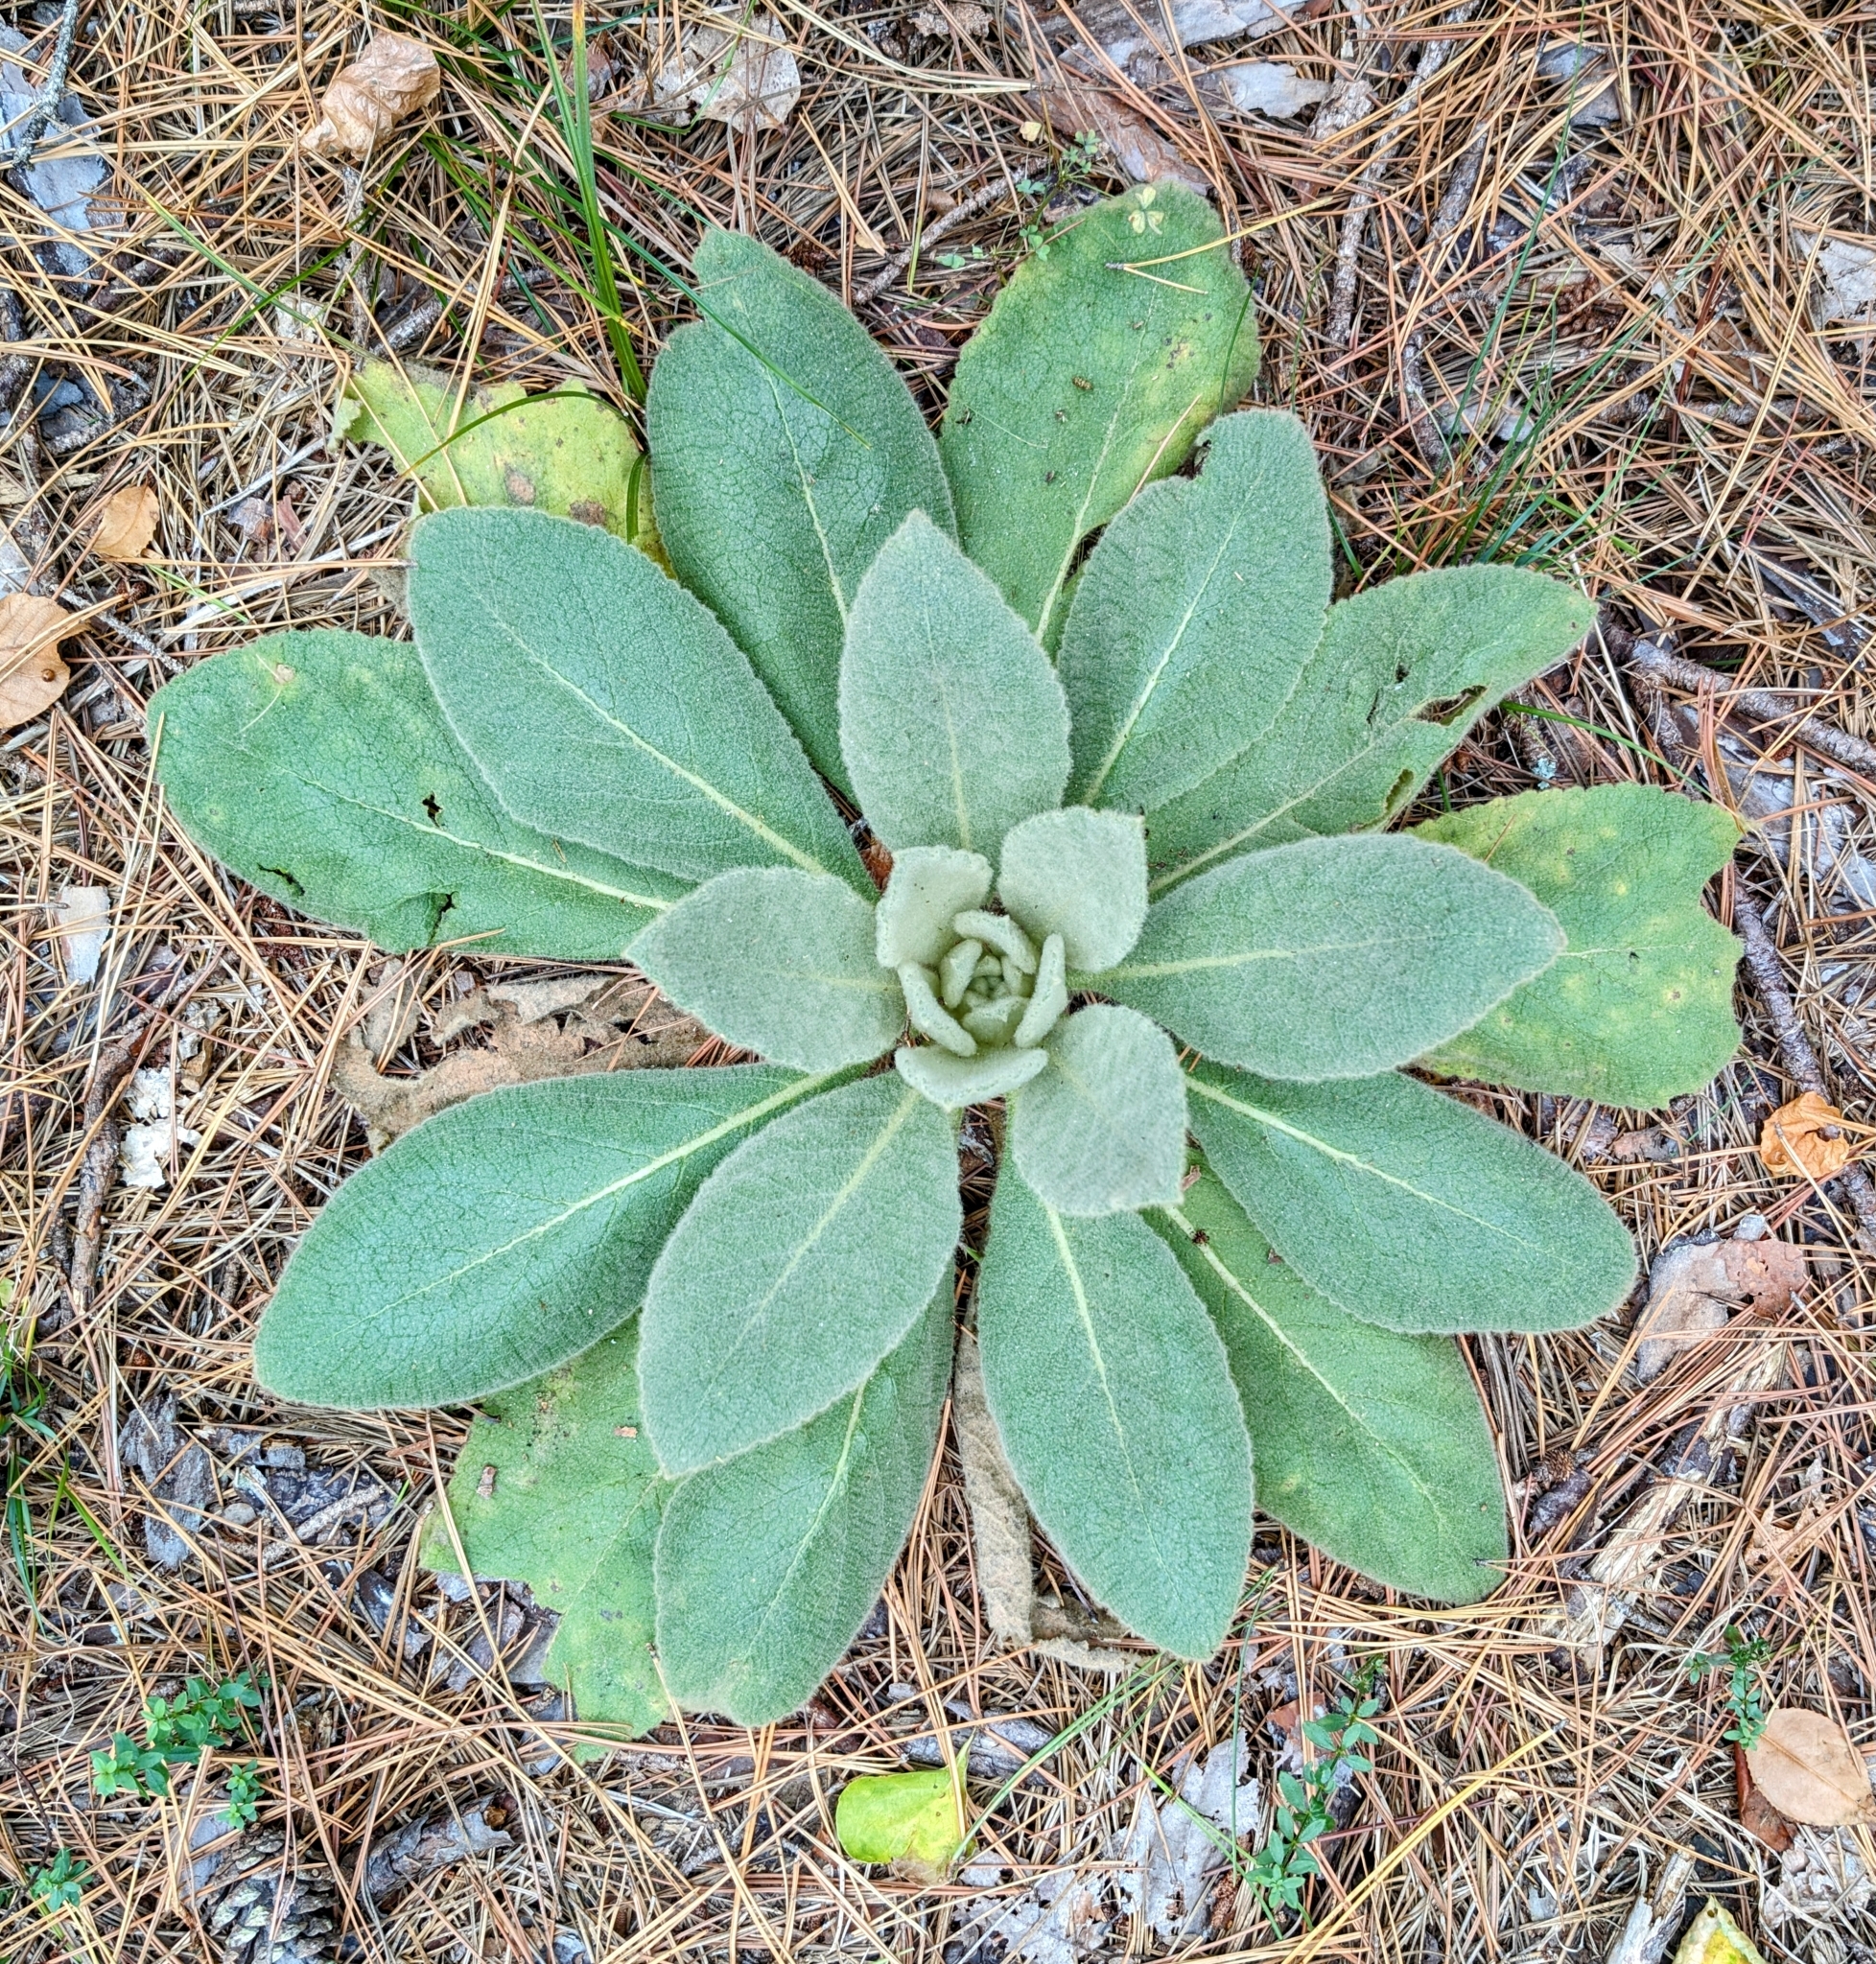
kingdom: Plantae
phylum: Tracheophyta
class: Magnoliopsida
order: Lamiales
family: Scrophulariaceae
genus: Verbascum
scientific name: Verbascum thapsus
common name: Common mullein
